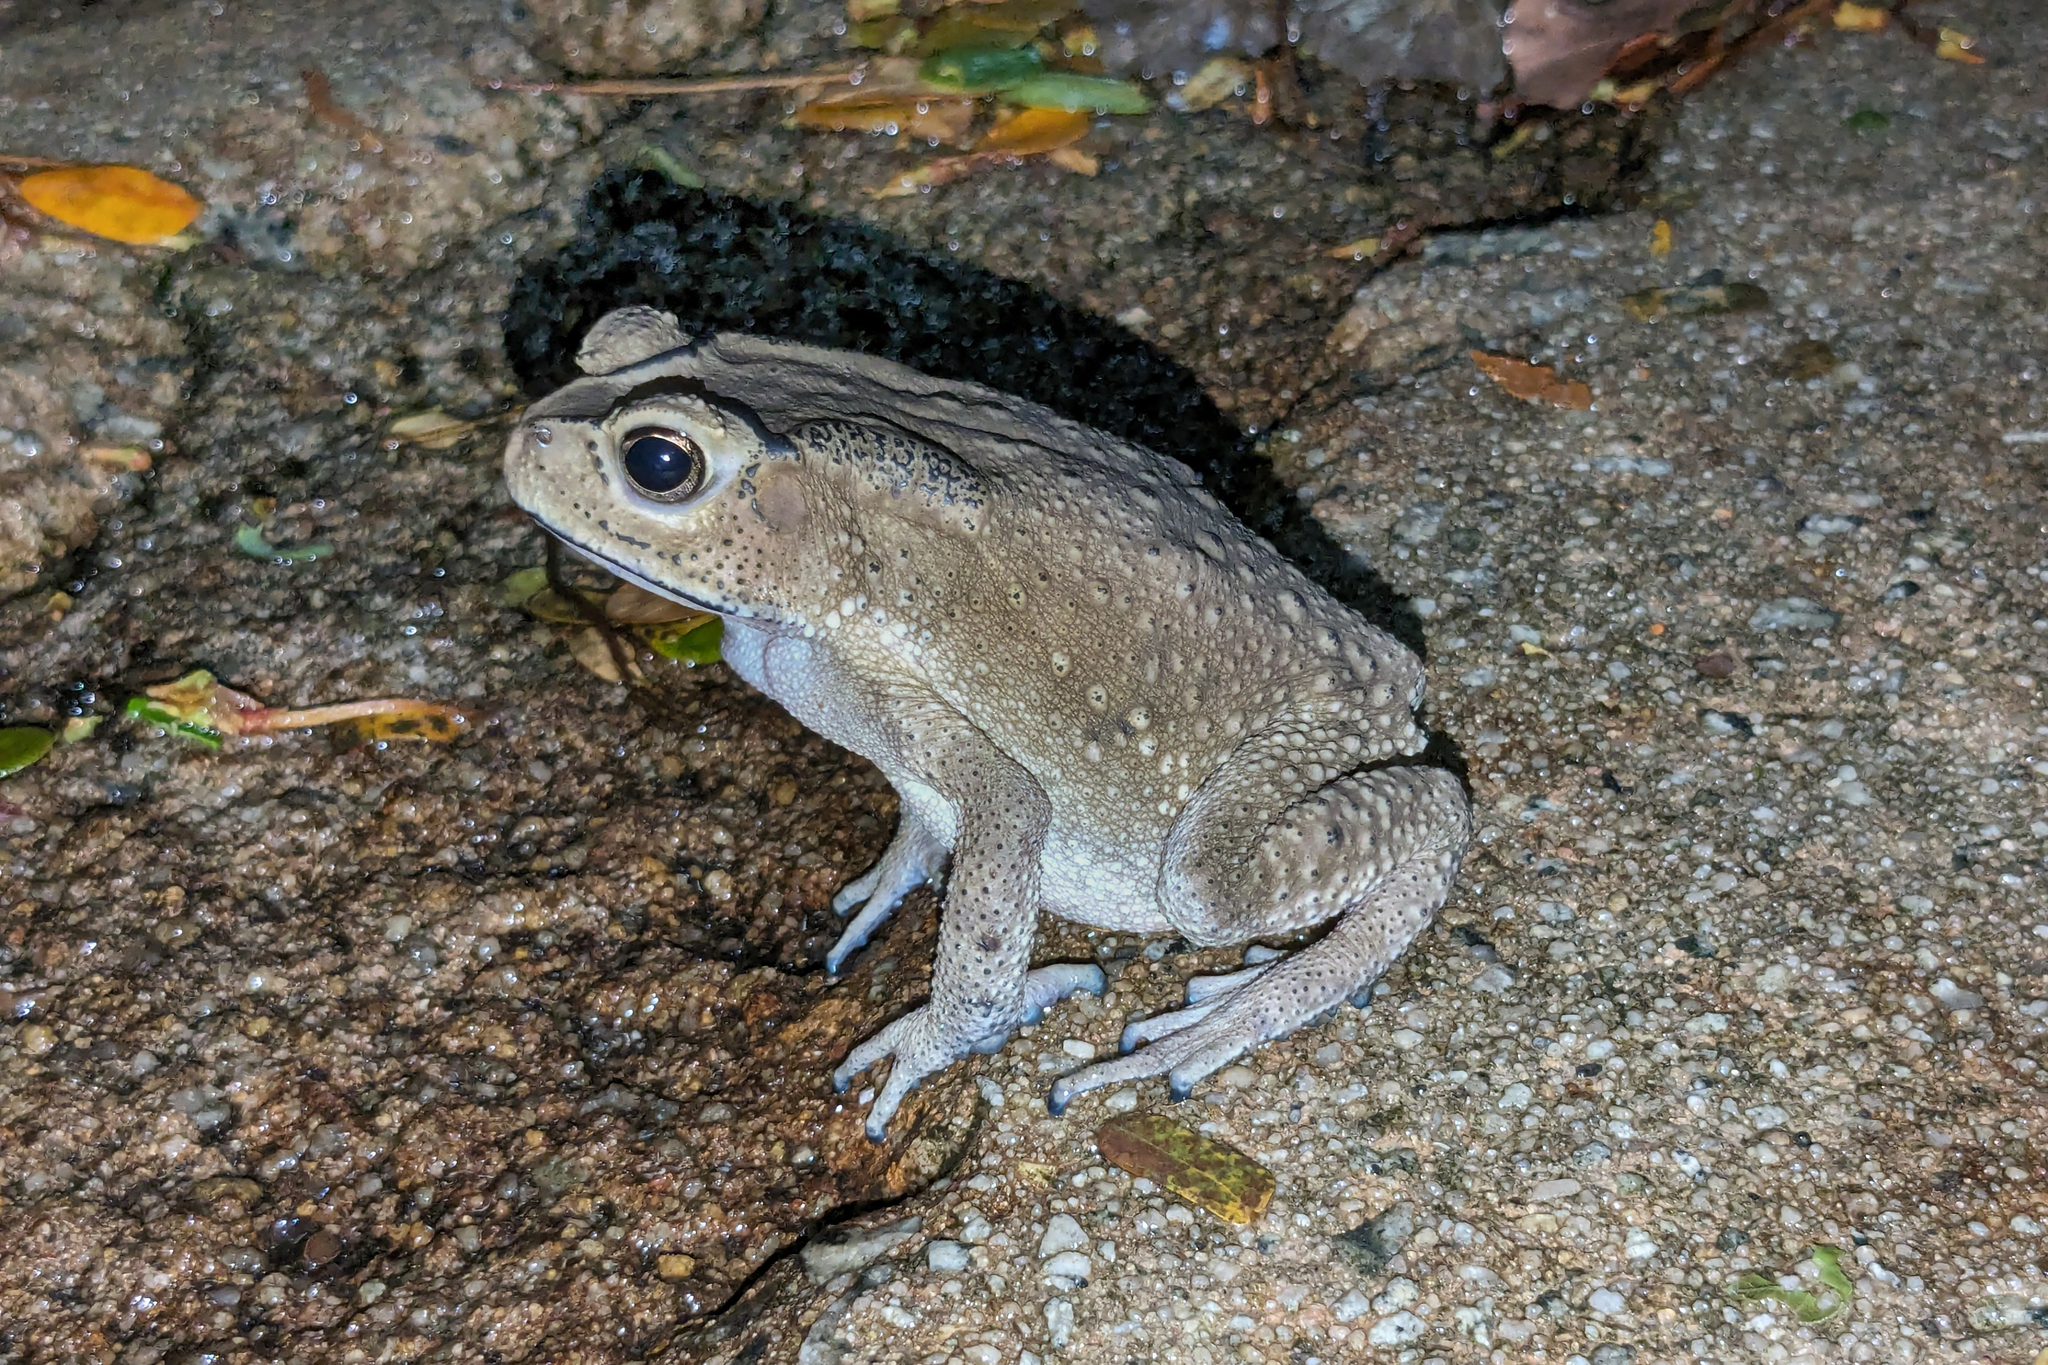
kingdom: Animalia
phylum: Chordata
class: Amphibia
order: Anura
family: Bufonidae
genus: Duttaphrynus
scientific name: Duttaphrynus melanostictus
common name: Common sunda toad
